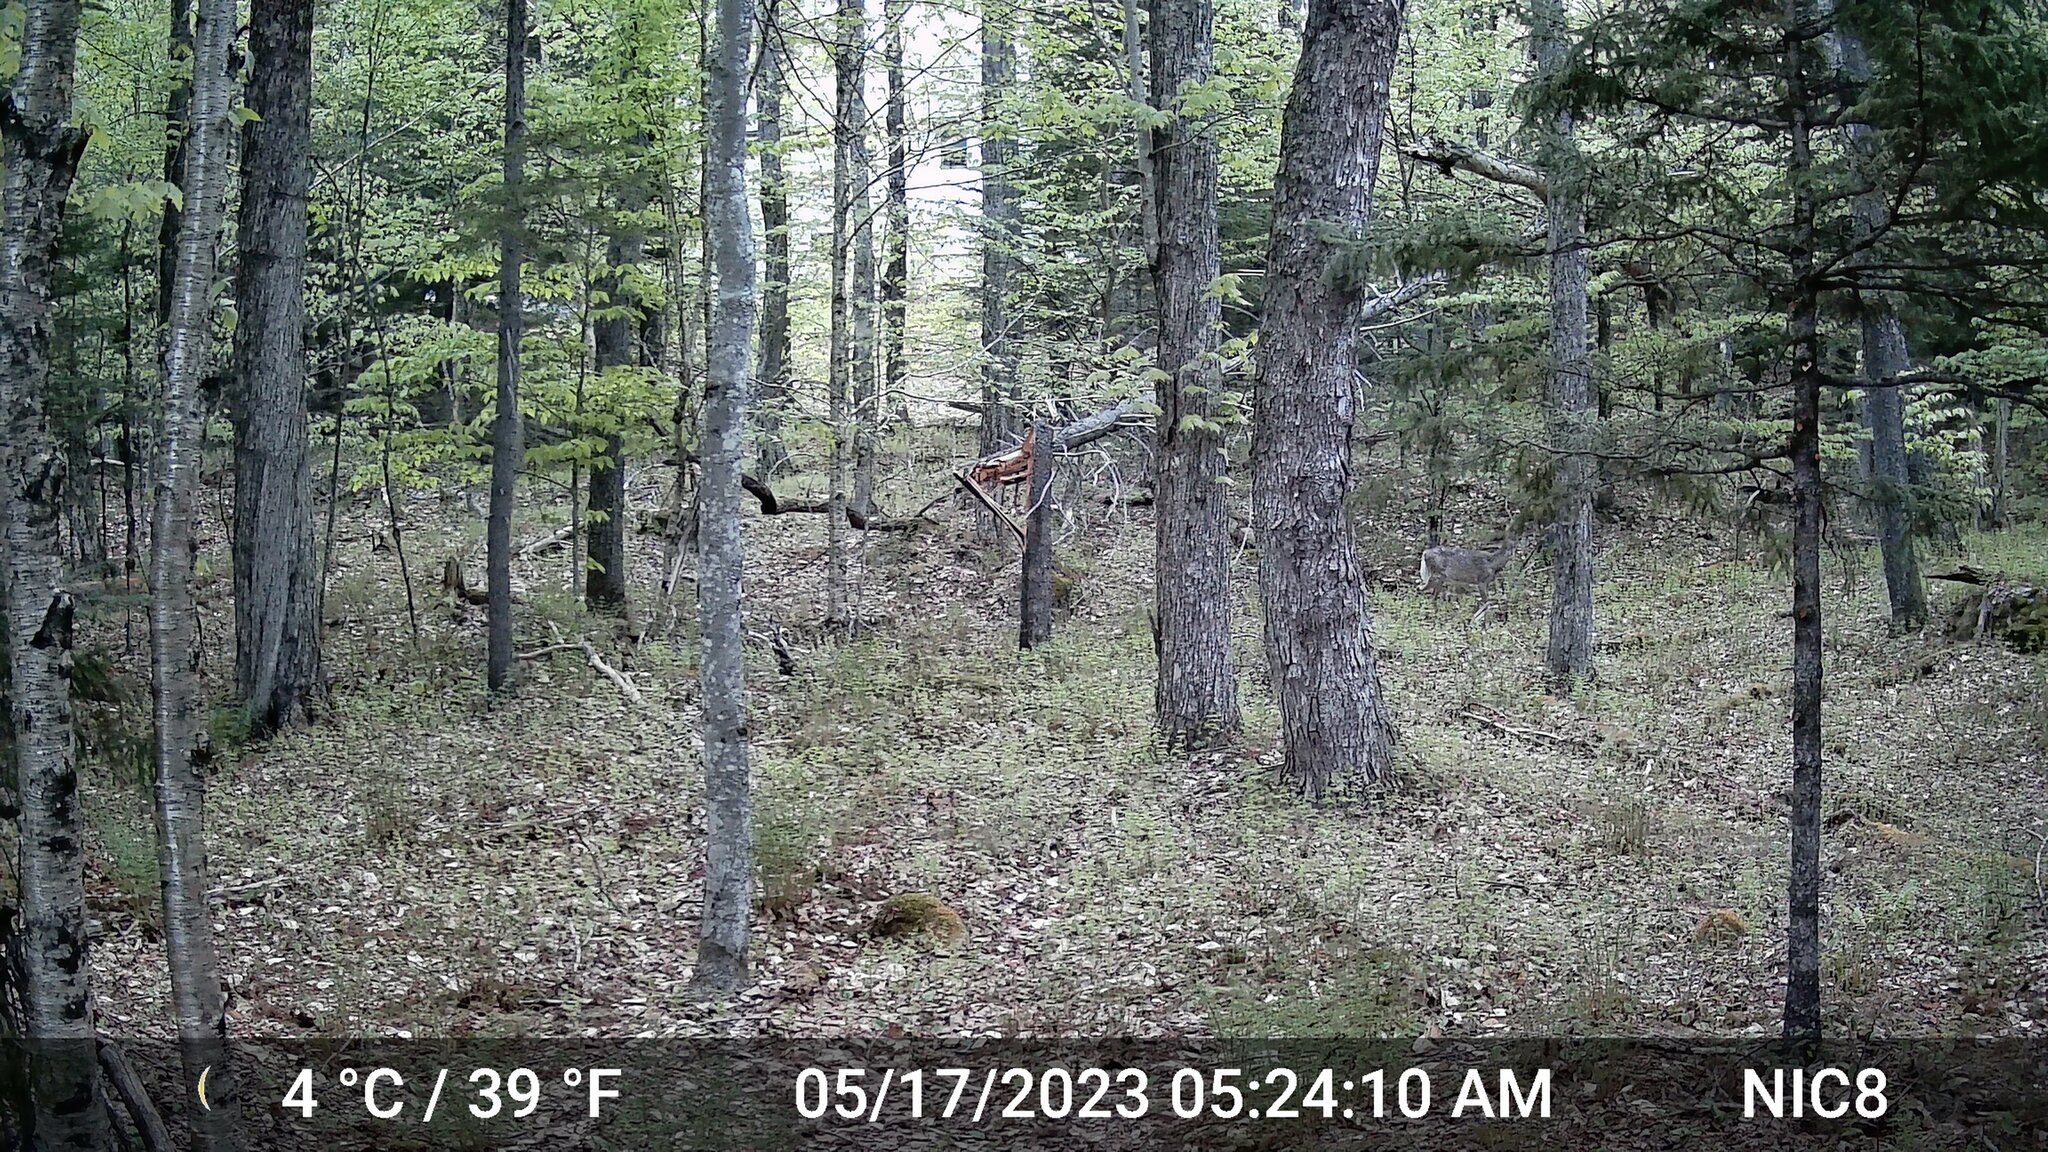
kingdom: Animalia
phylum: Chordata
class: Mammalia
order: Artiodactyla
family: Cervidae
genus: Odocoileus
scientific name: Odocoileus virginianus
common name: White-tailed deer
